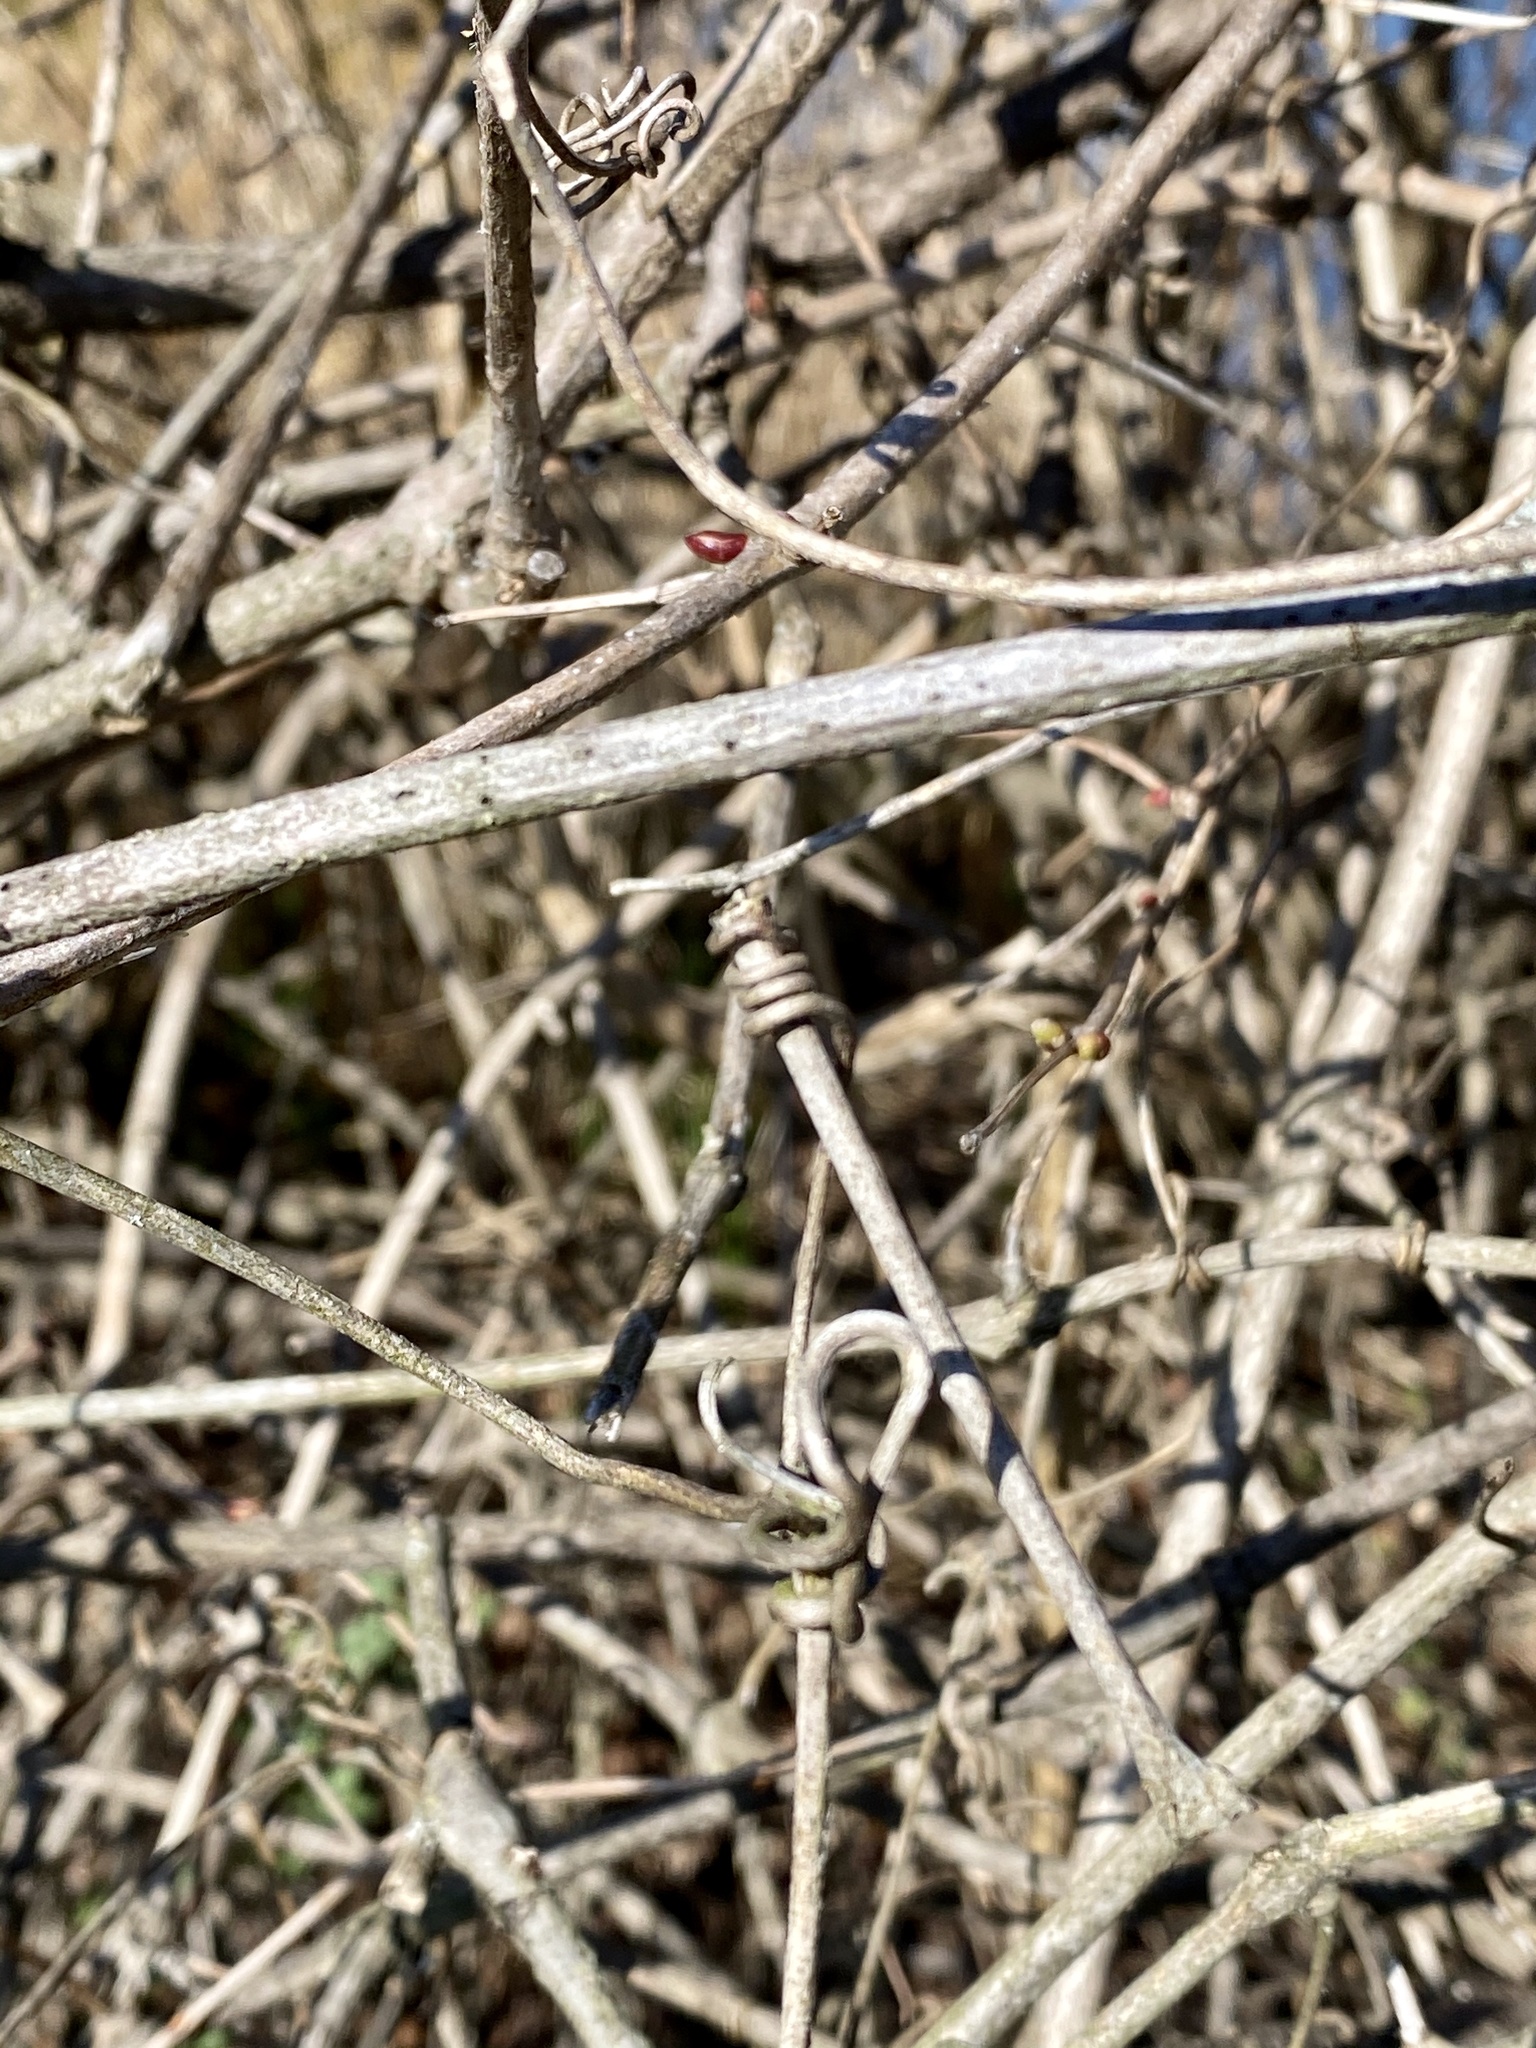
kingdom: Plantae
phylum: Tracheophyta
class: Magnoliopsida
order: Vitales
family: Vitaceae
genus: Ampelopsis
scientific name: Ampelopsis glandulosa
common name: Amur peppervine
